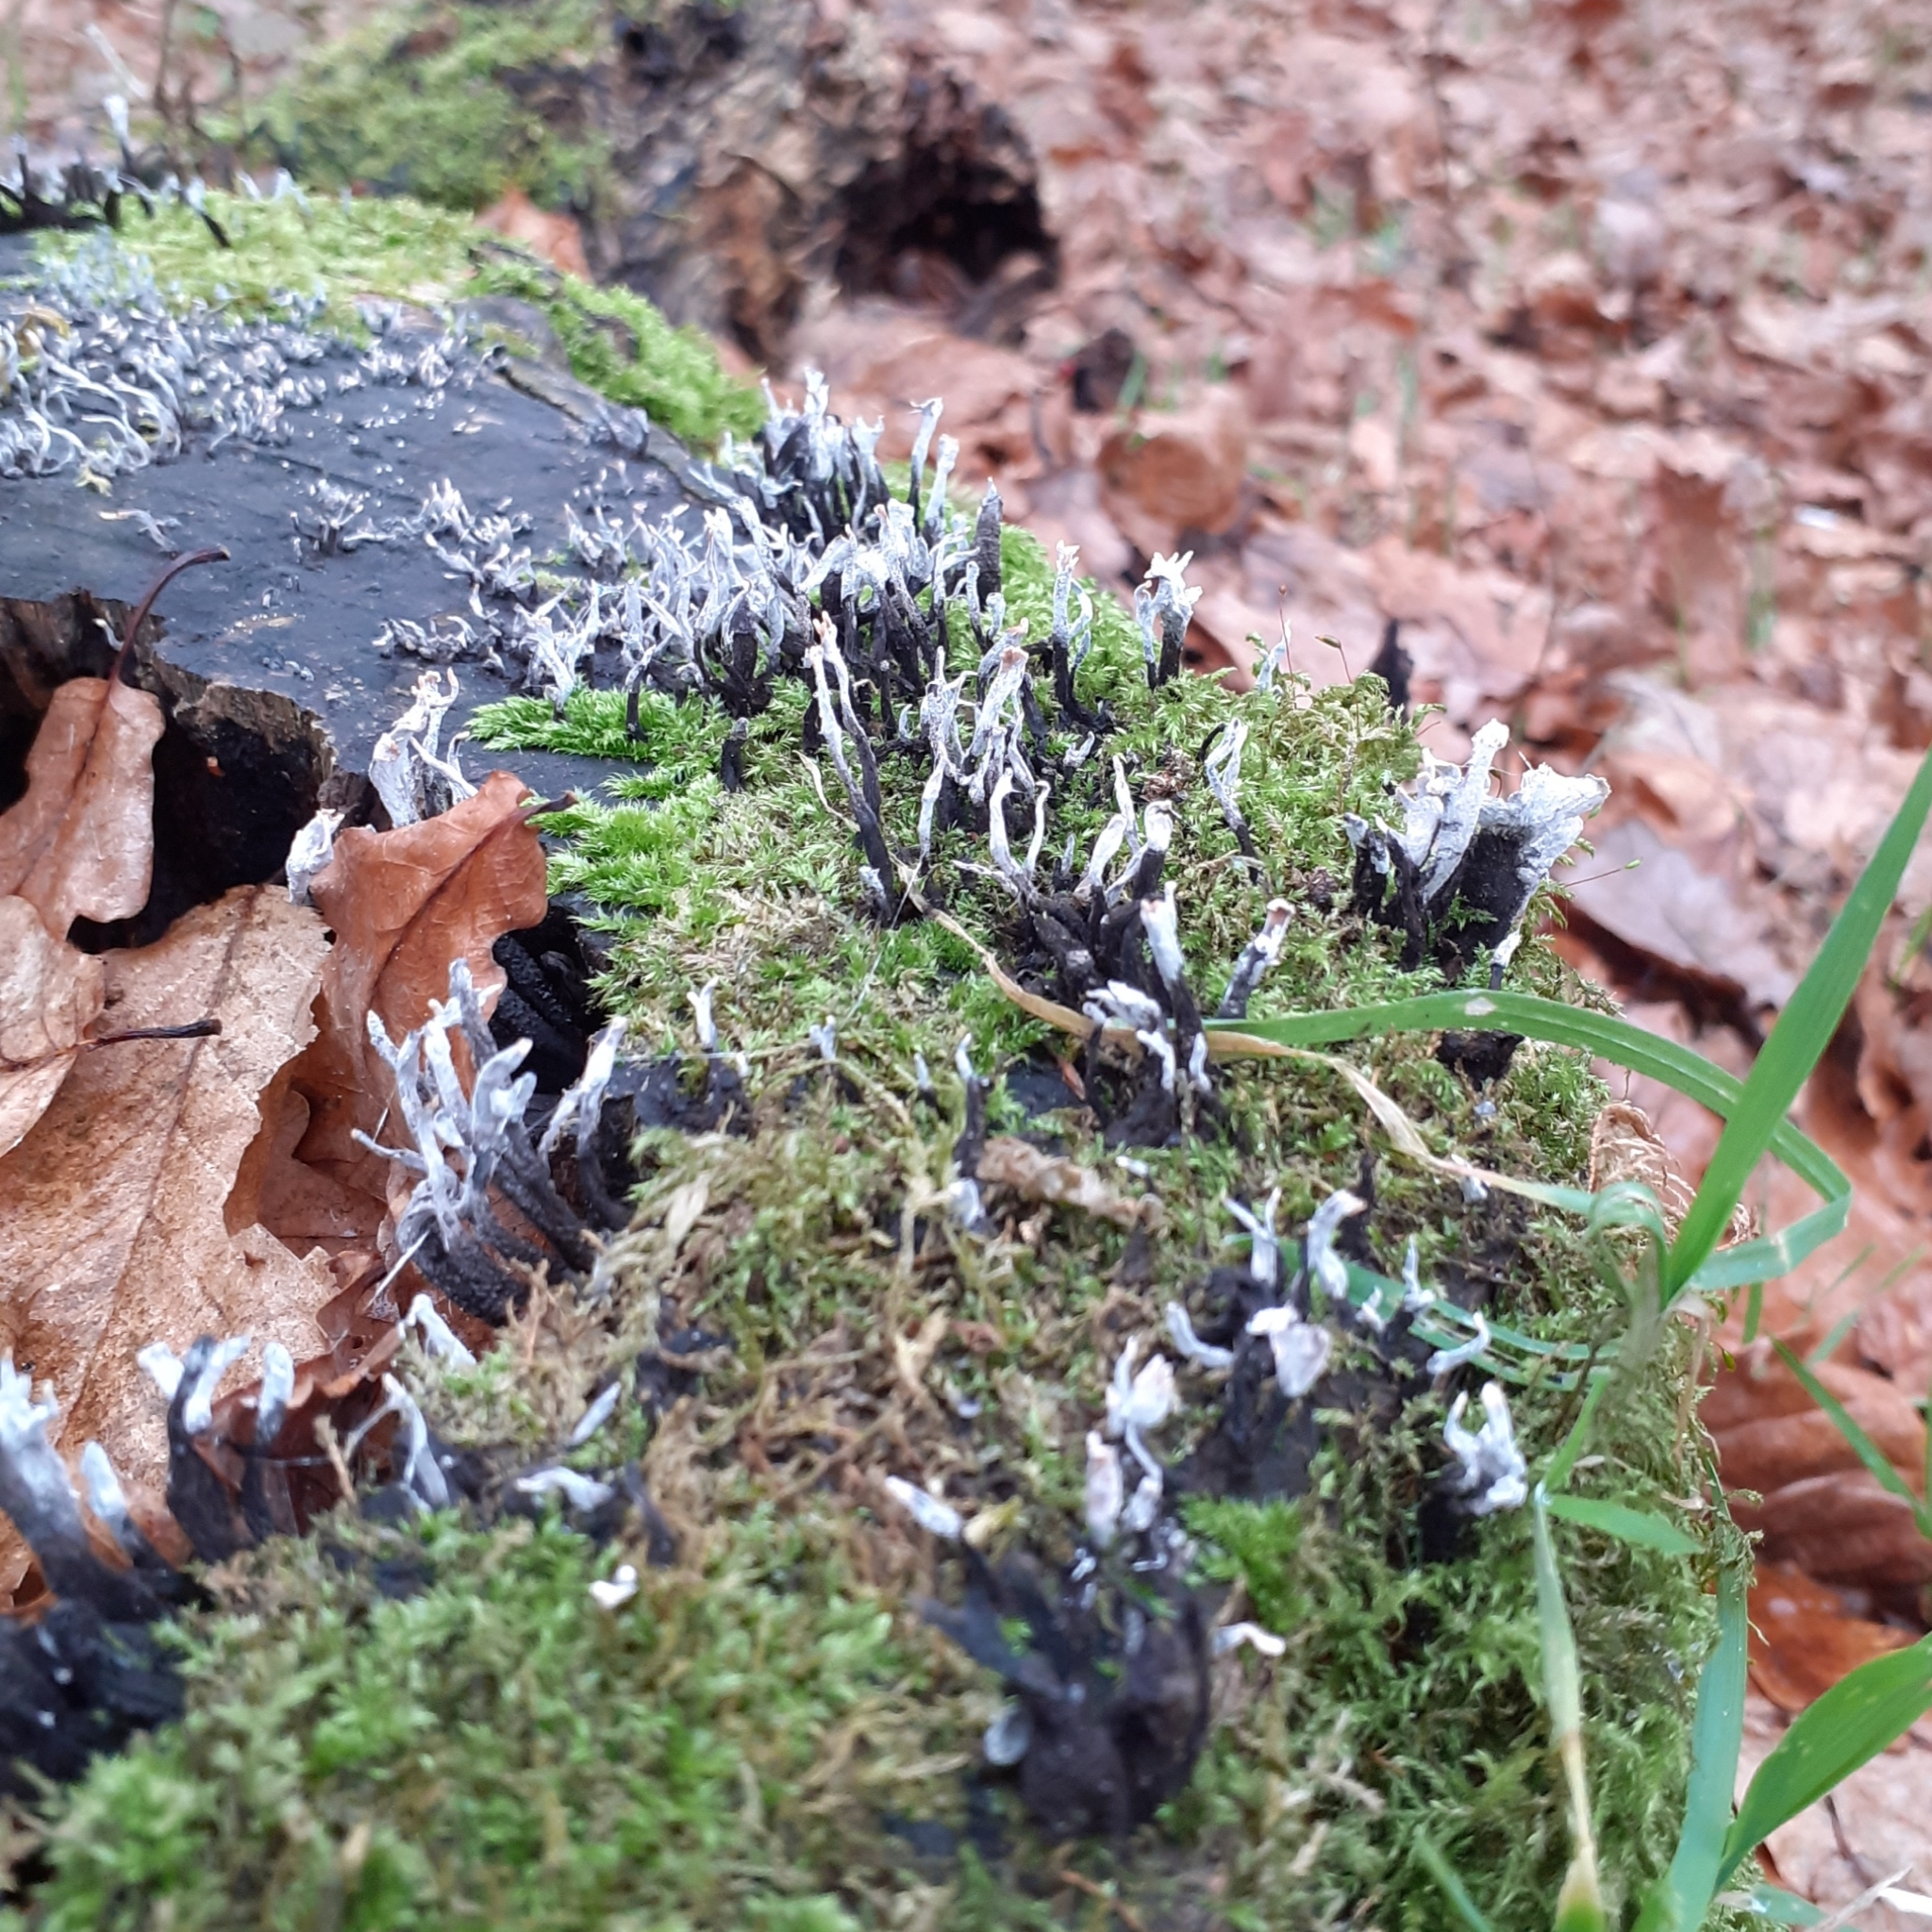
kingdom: Fungi
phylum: Ascomycota
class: Sordariomycetes
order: Xylariales
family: Xylariaceae
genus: Xylaria
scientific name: Xylaria hypoxylon
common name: Candle-snuff fungus
